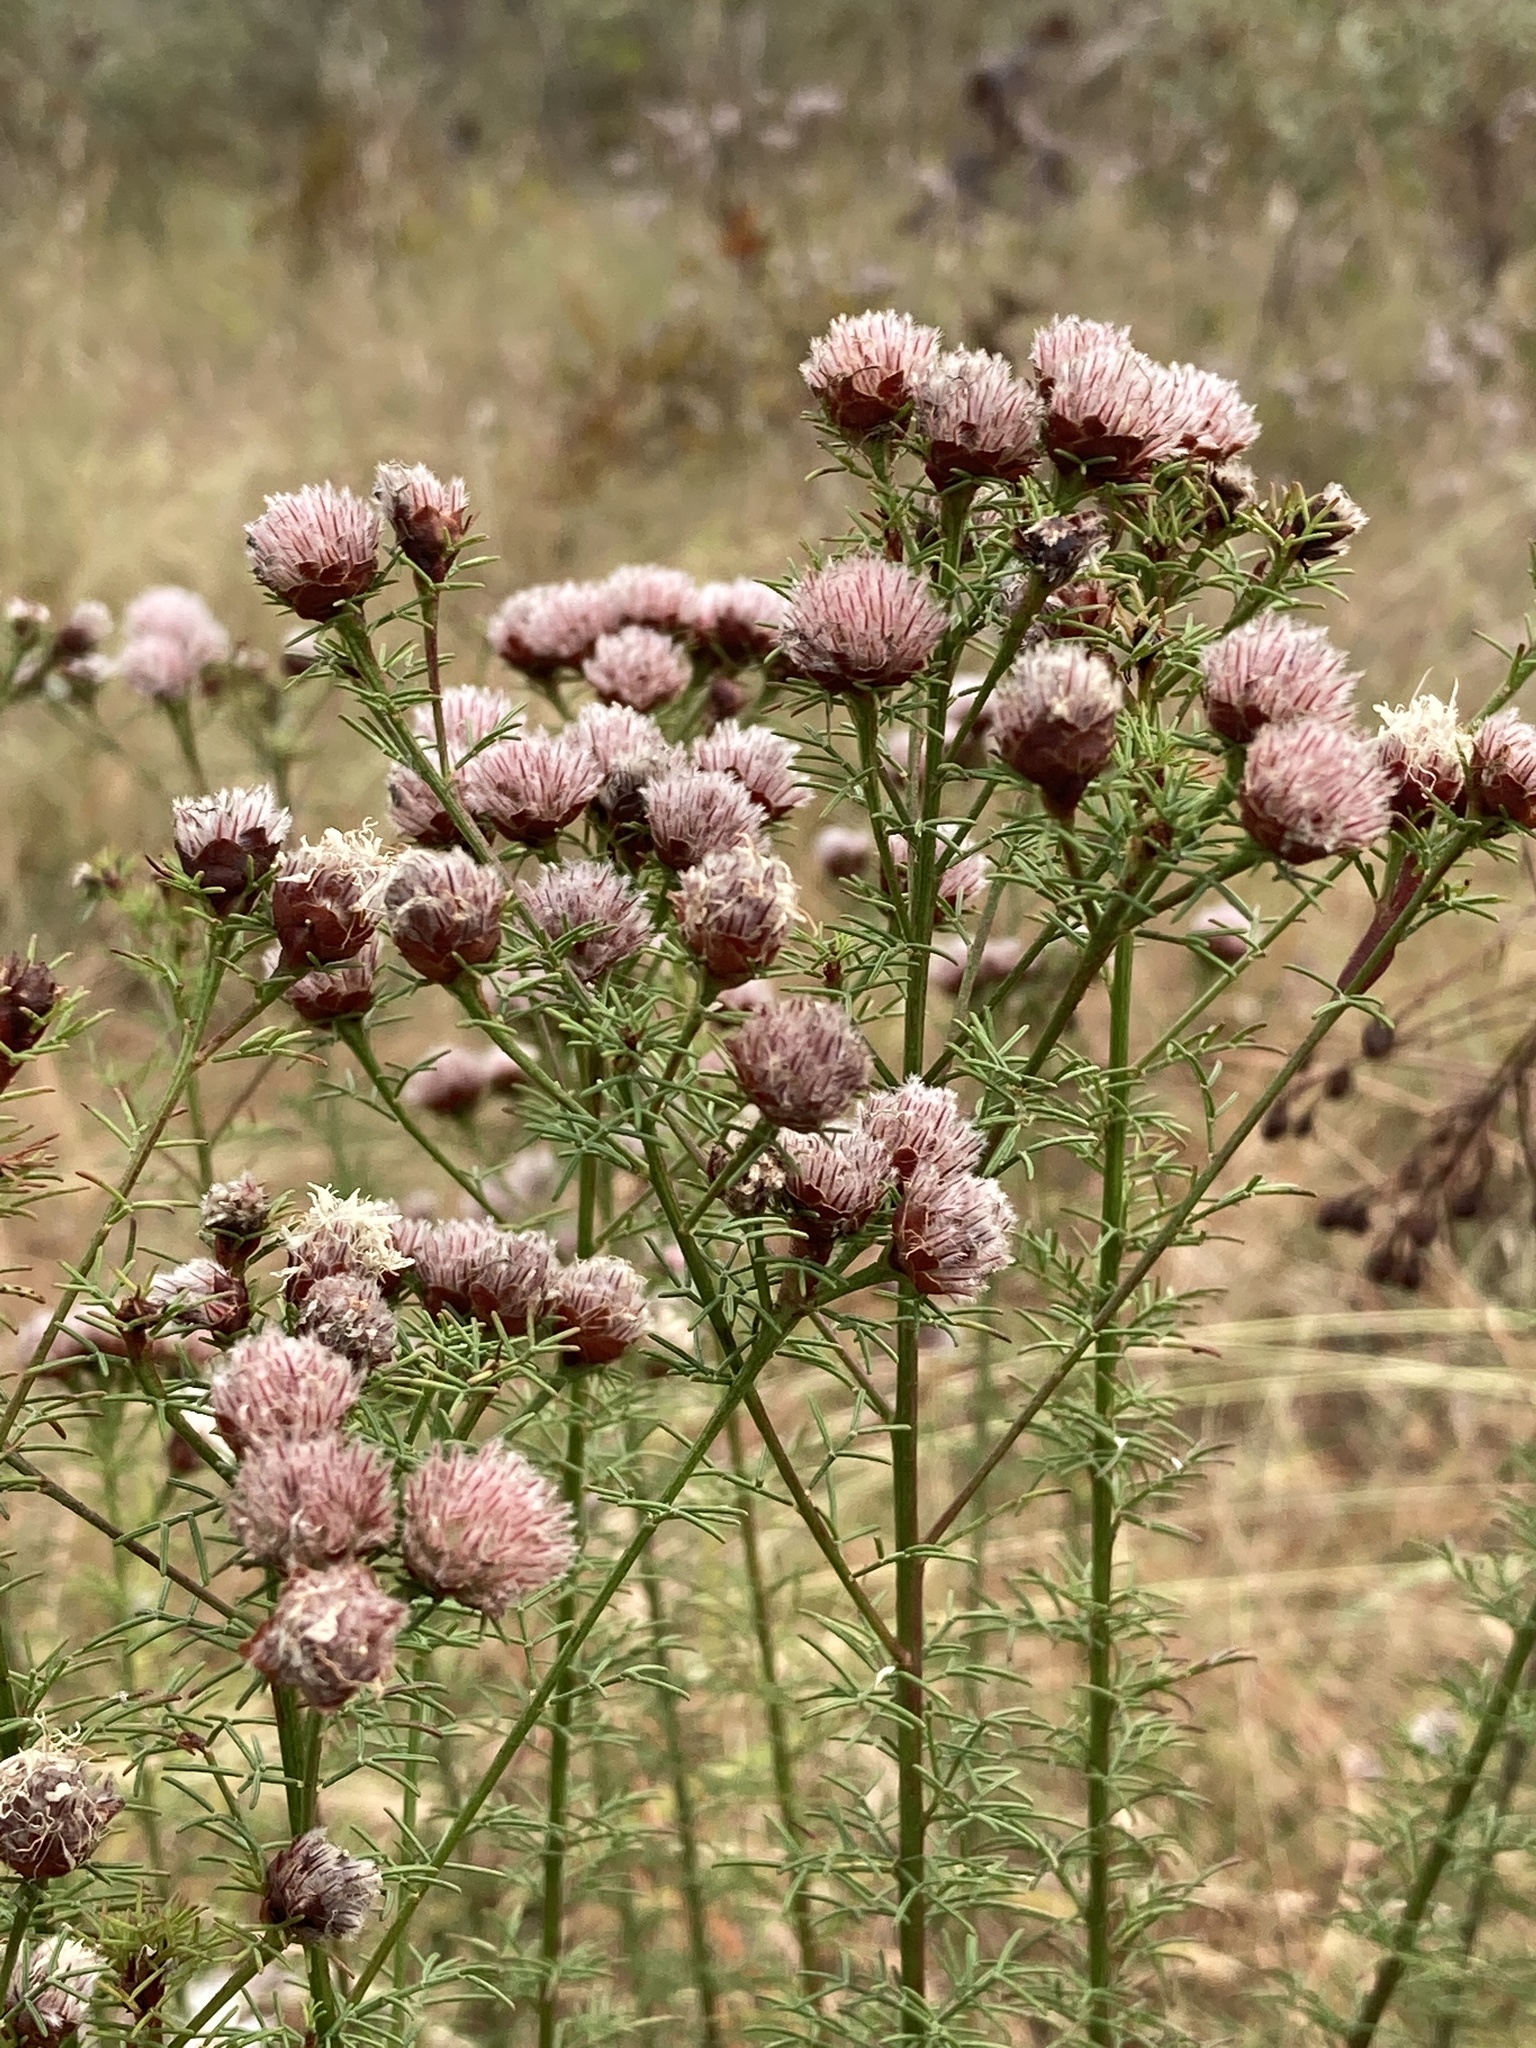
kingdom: Plantae
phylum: Tracheophyta
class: Magnoliopsida
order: Fabales
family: Fabaceae
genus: Dalea
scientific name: Dalea pinnata
